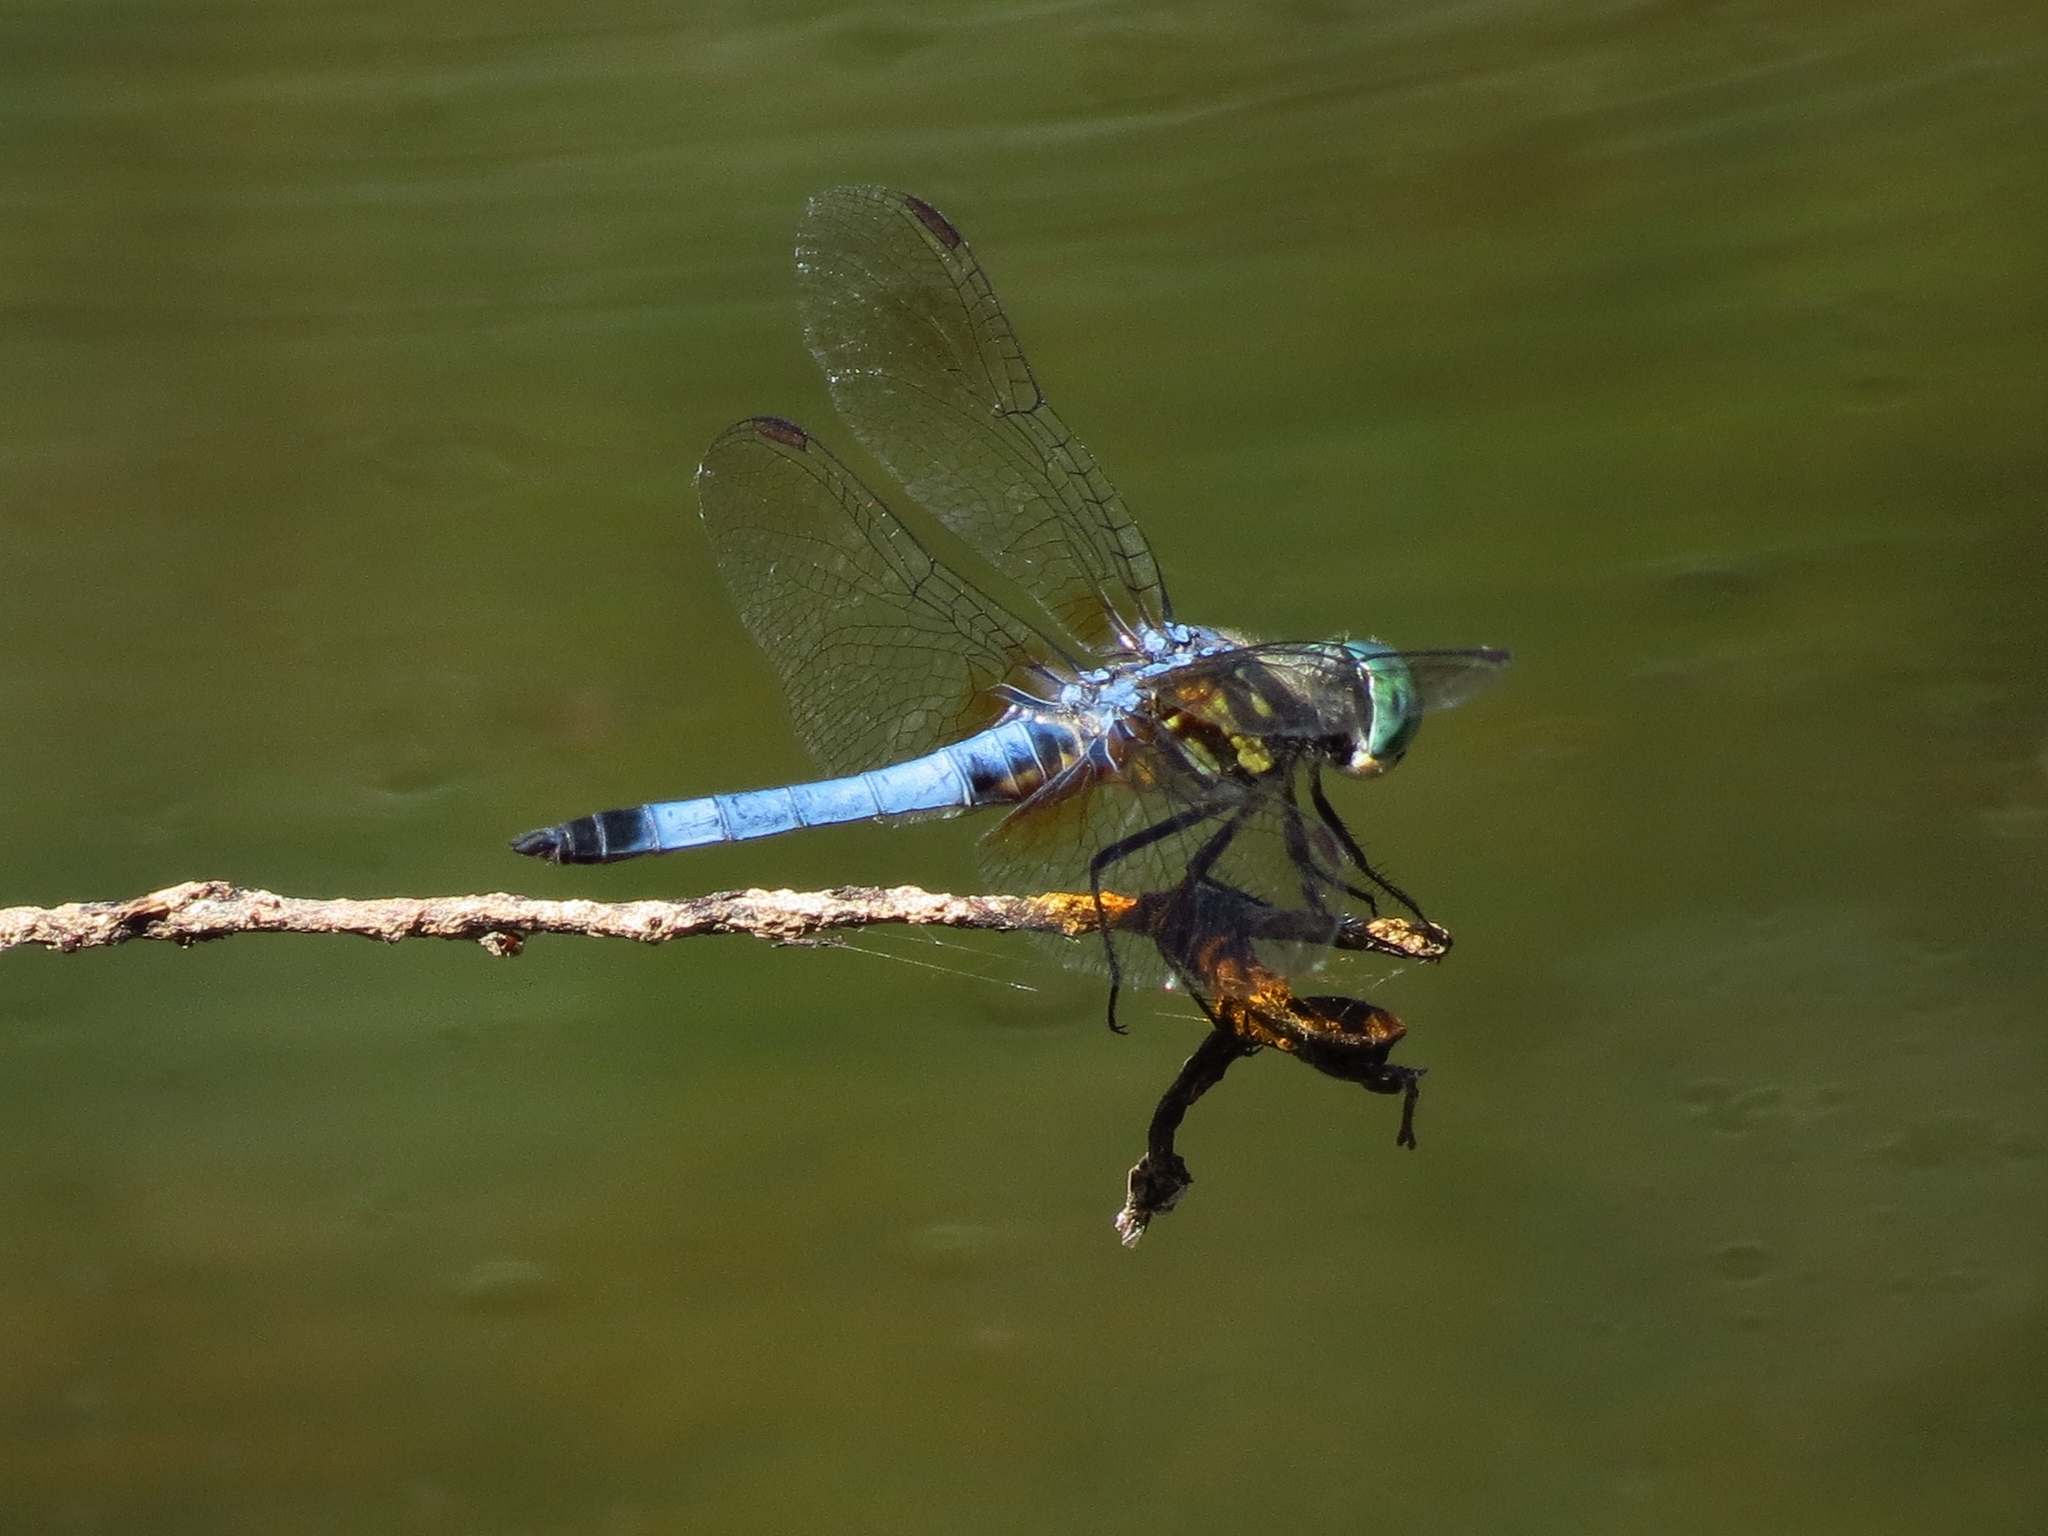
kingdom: Animalia
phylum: Arthropoda
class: Insecta
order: Odonata
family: Libellulidae
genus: Pachydiplax
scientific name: Pachydiplax longipennis
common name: Blue dasher
